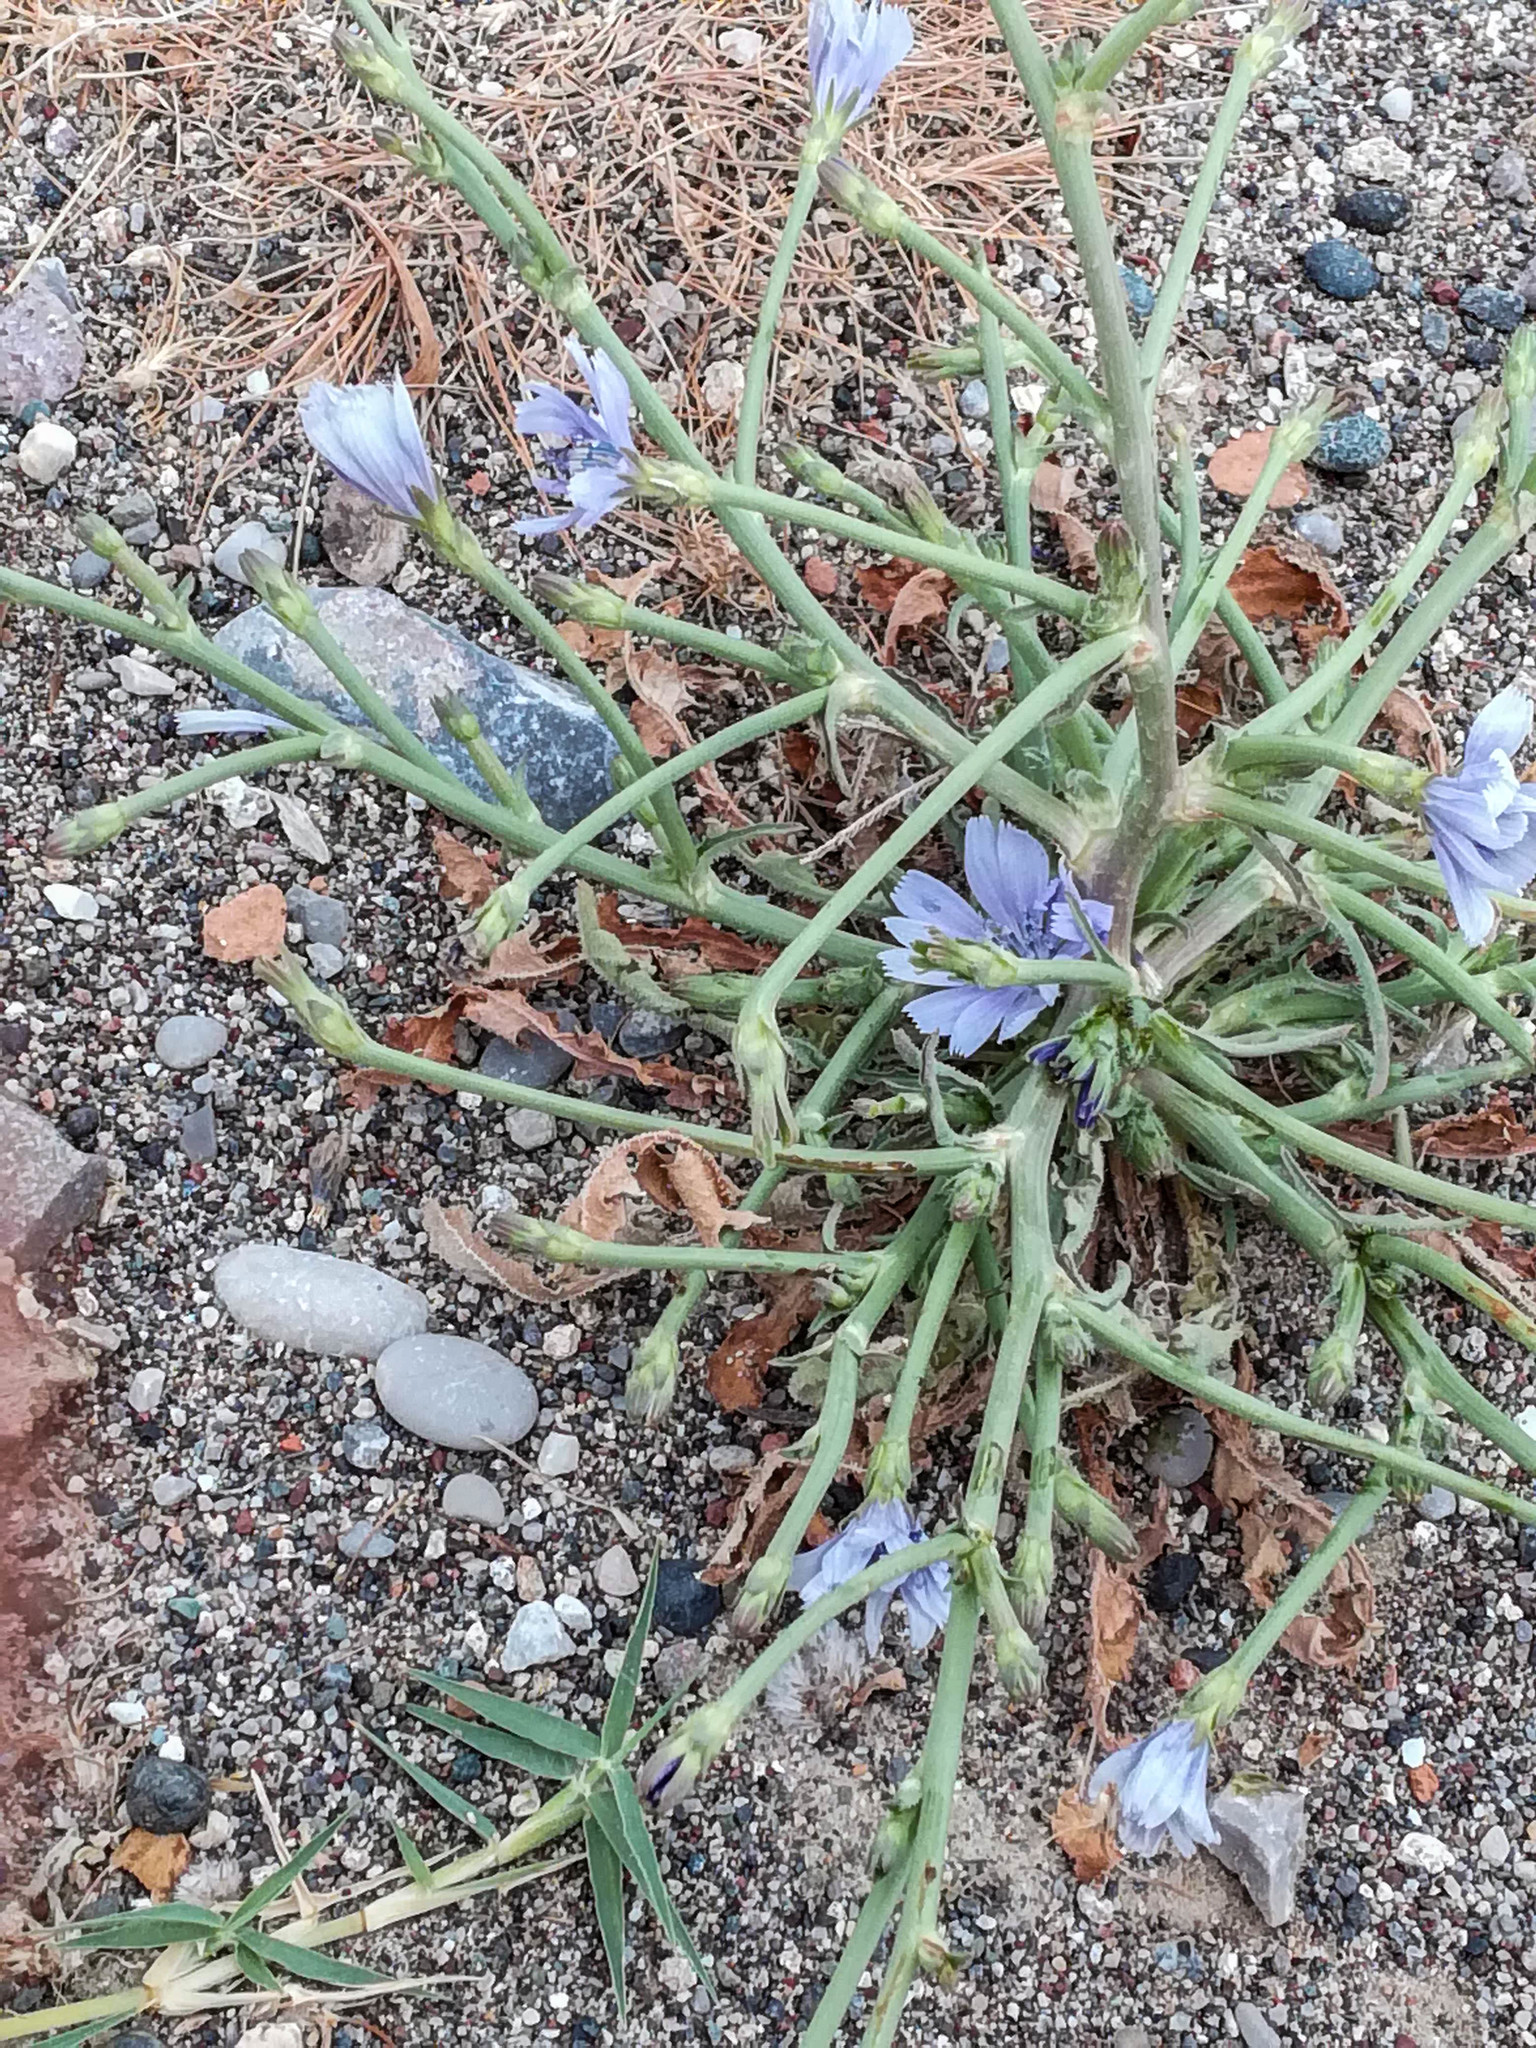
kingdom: Plantae
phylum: Tracheophyta
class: Magnoliopsida
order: Asterales
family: Asteraceae
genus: Cichorium
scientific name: Cichorium intybus
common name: Chicory
